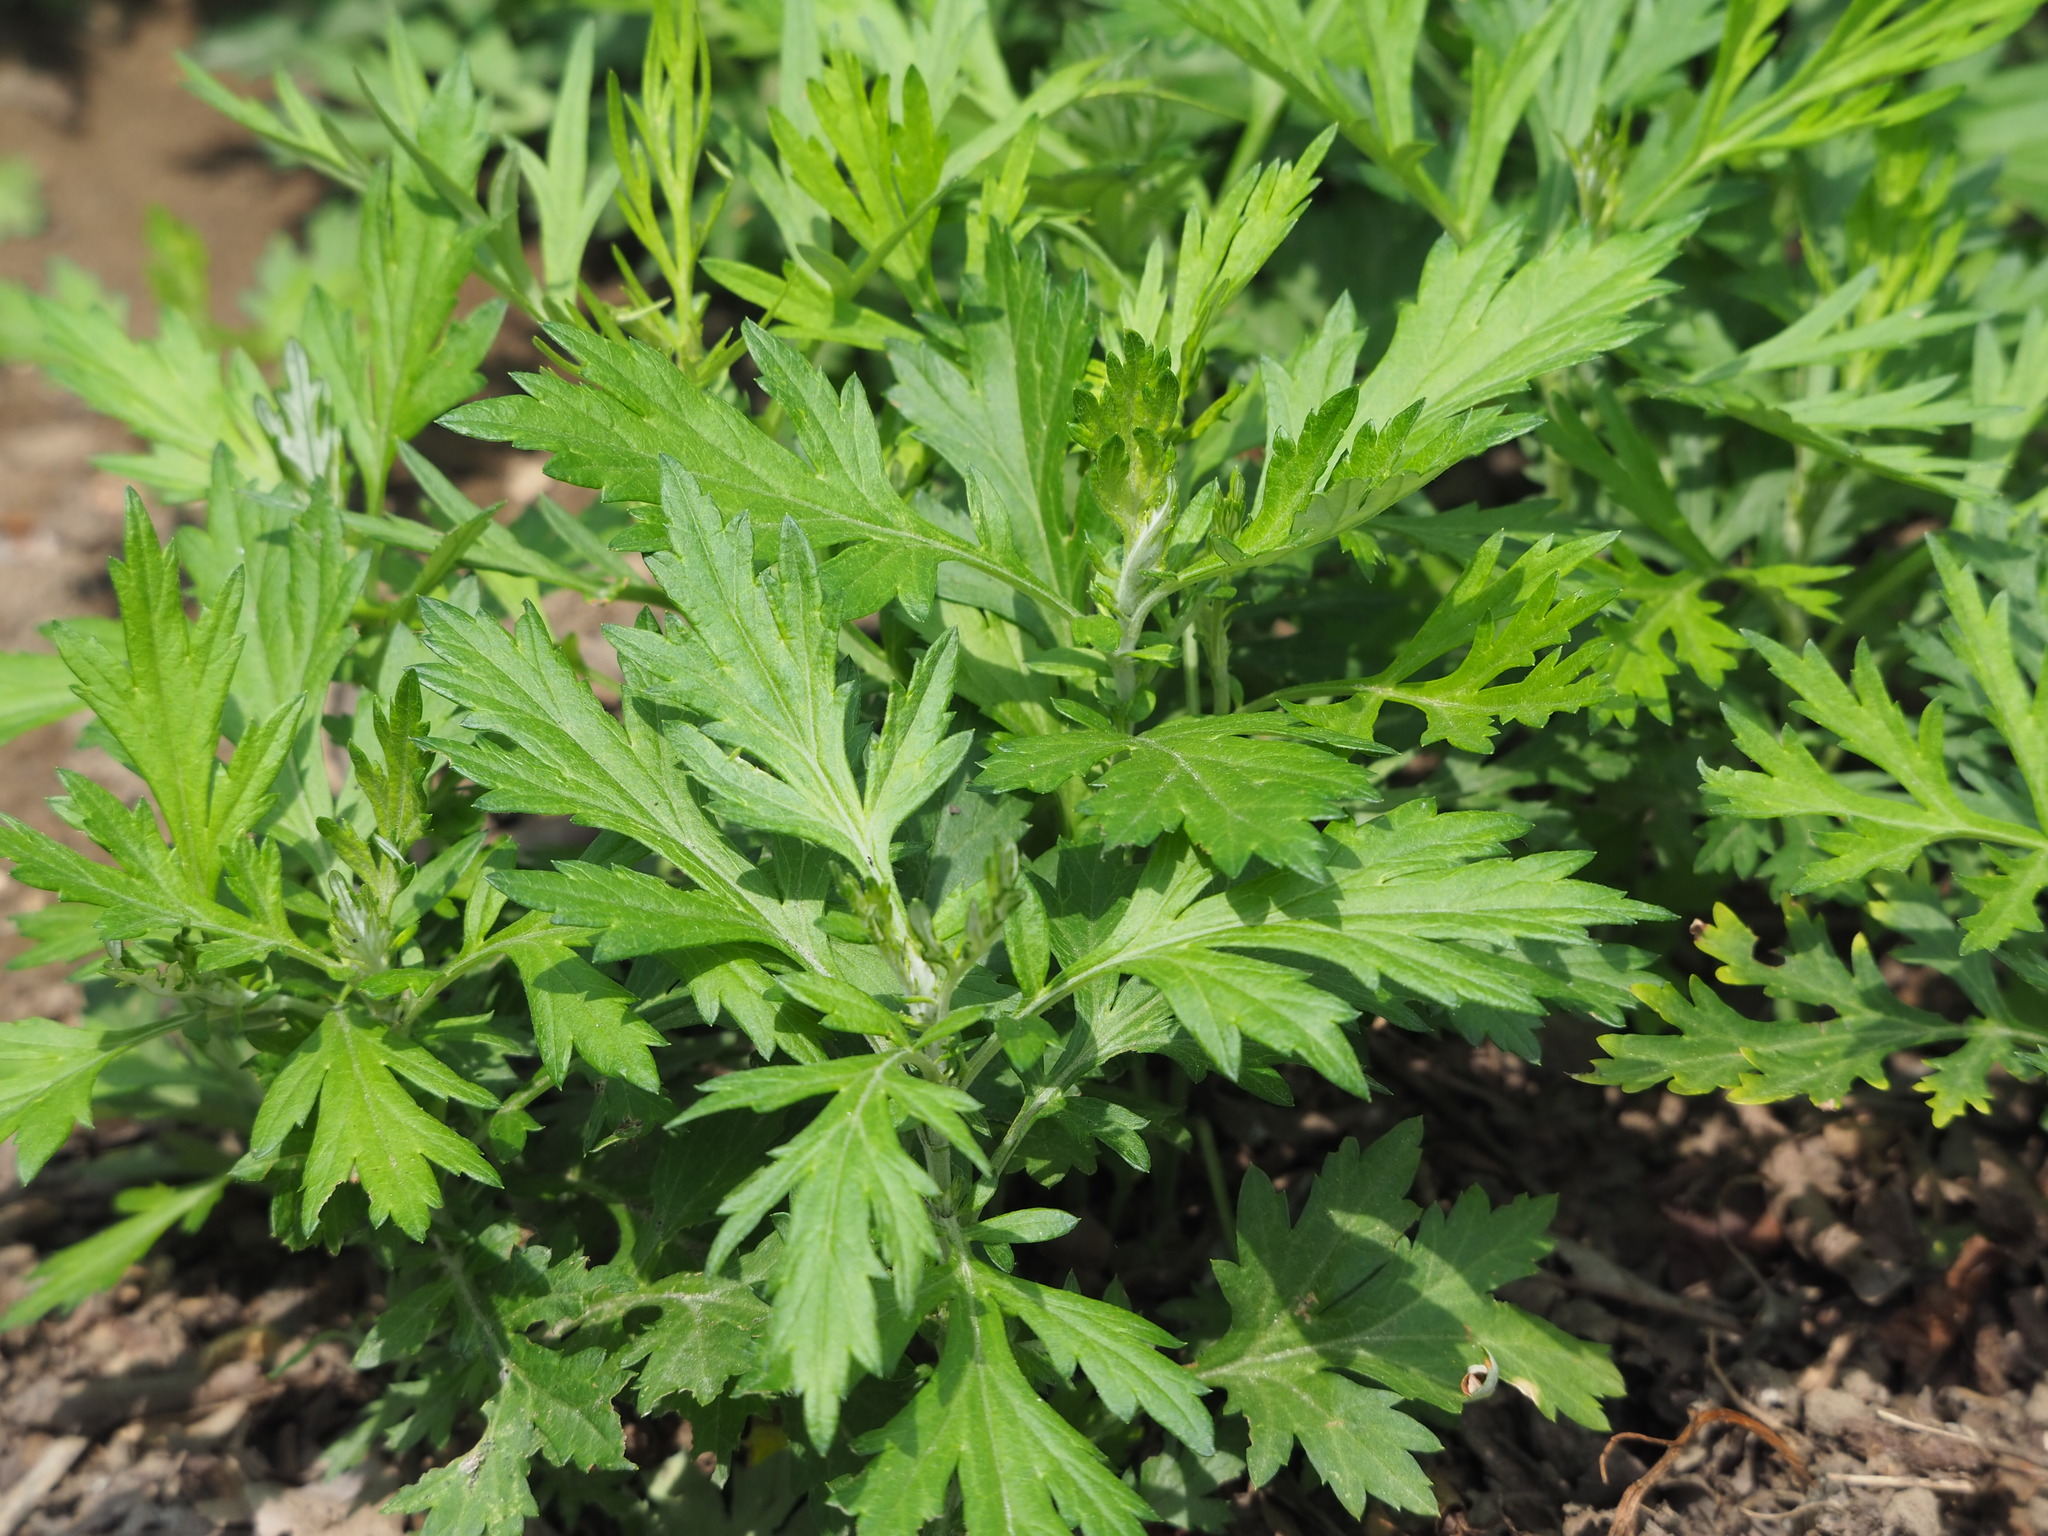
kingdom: Plantae
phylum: Tracheophyta
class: Magnoliopsida
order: Asterales
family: Asteraceae
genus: Artemisia
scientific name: Artemisia indica
